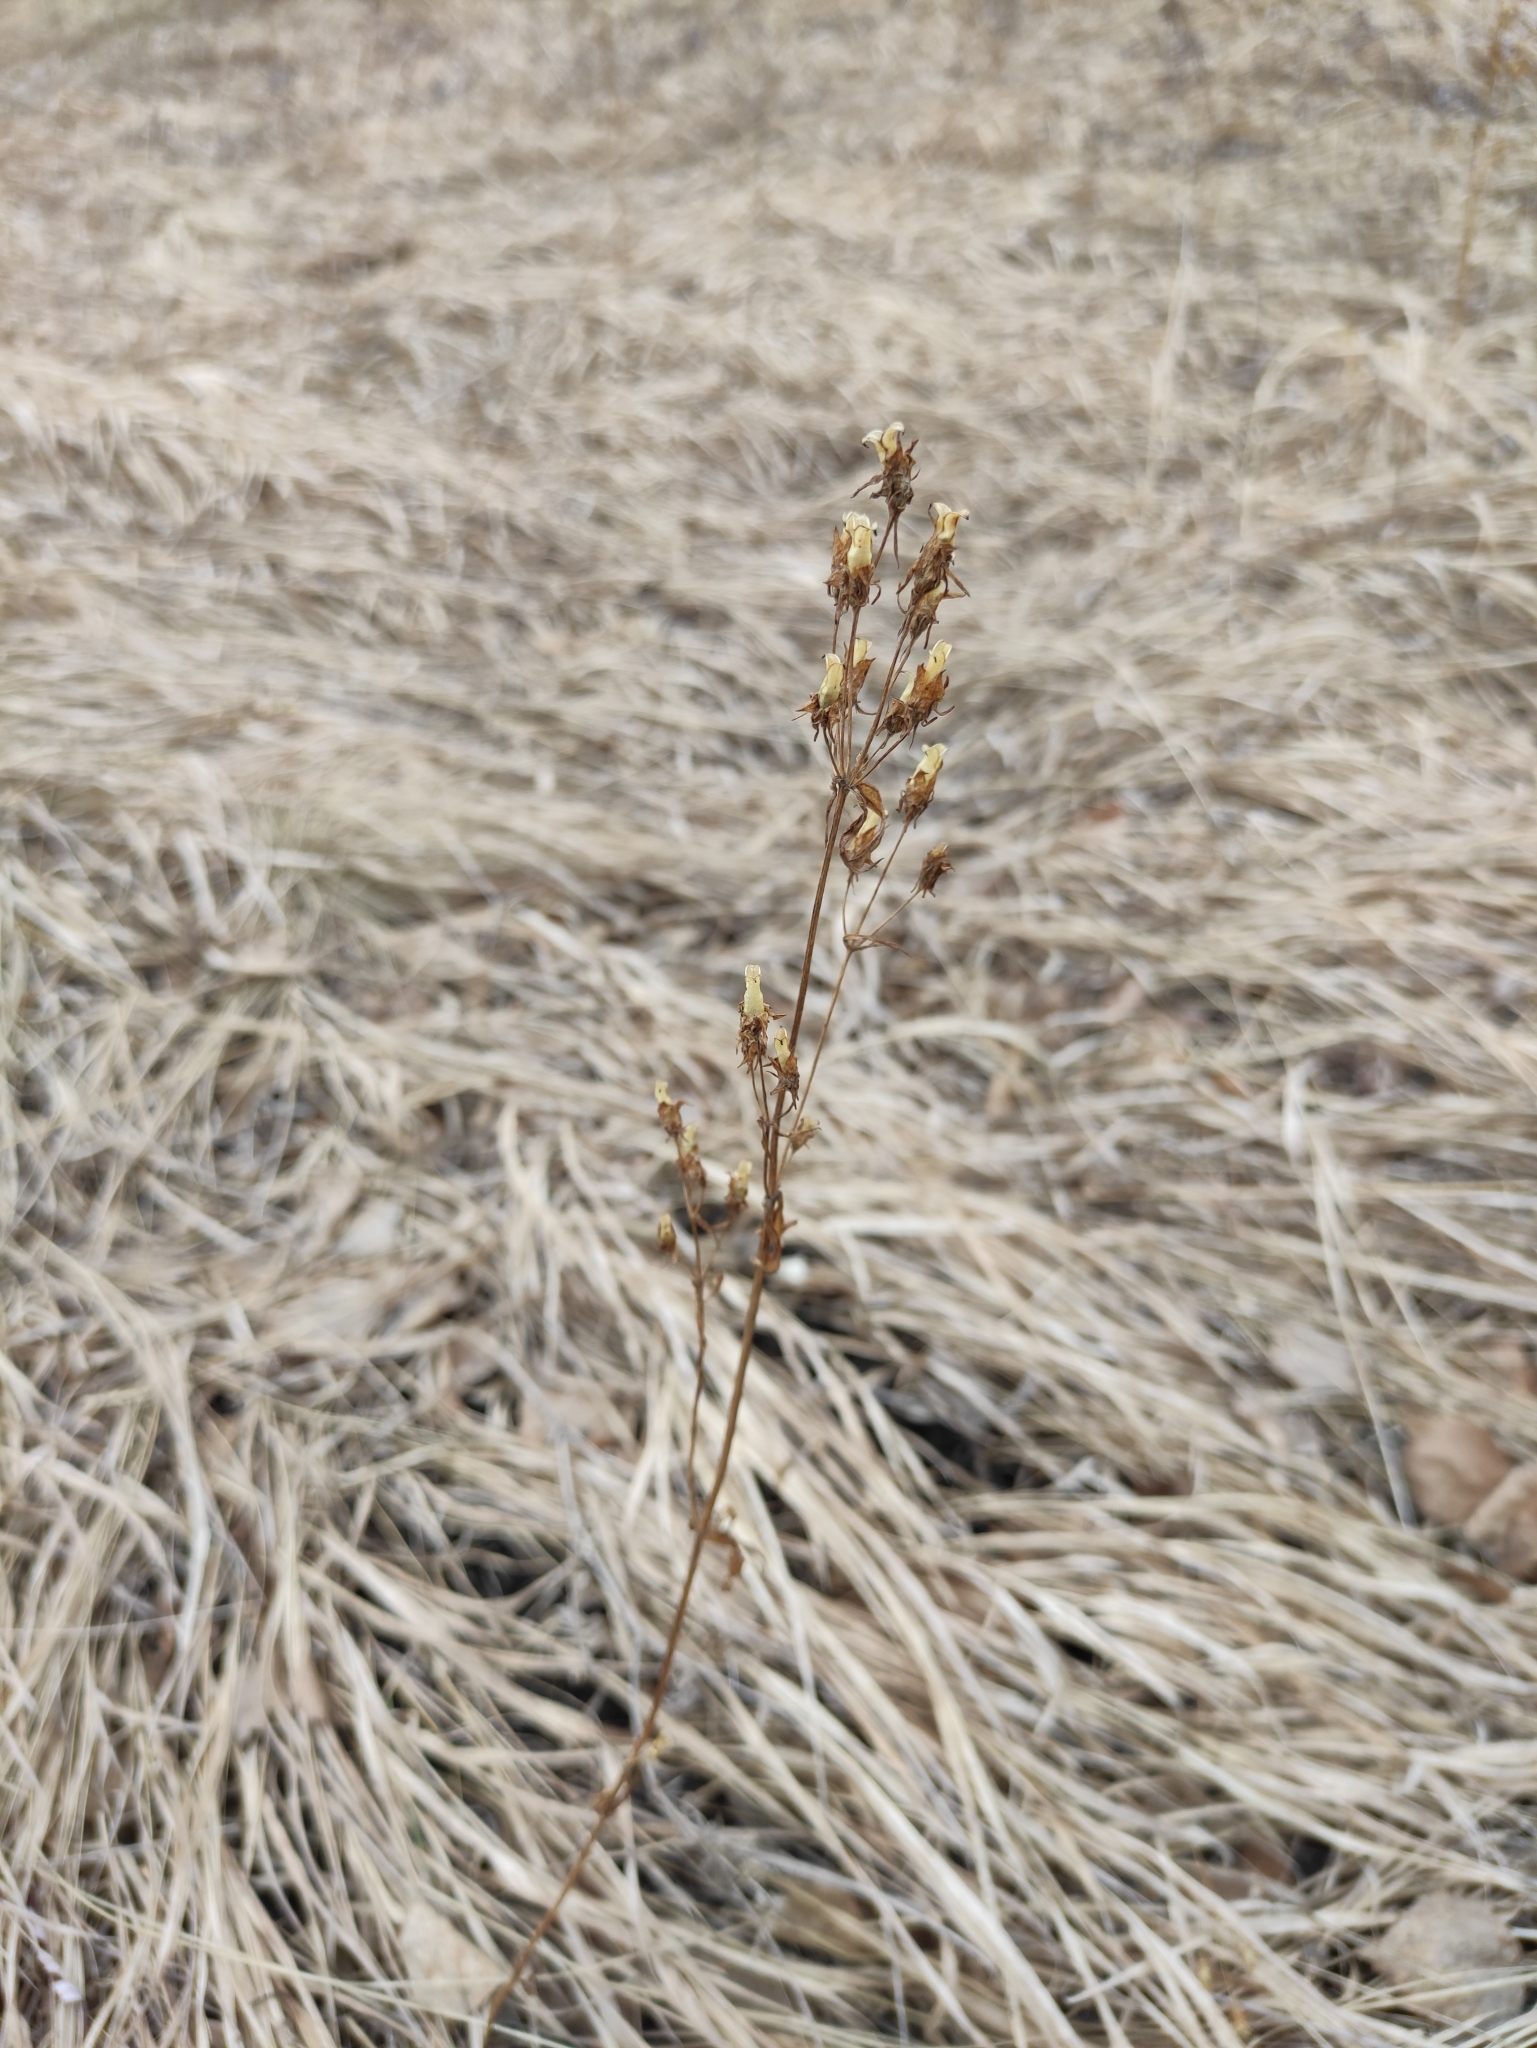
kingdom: Plantae
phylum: Tracheophyta
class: Magnoliopsida
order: Gentianales
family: Gentianaceae
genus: Halenia
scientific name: Halenia corniculata
